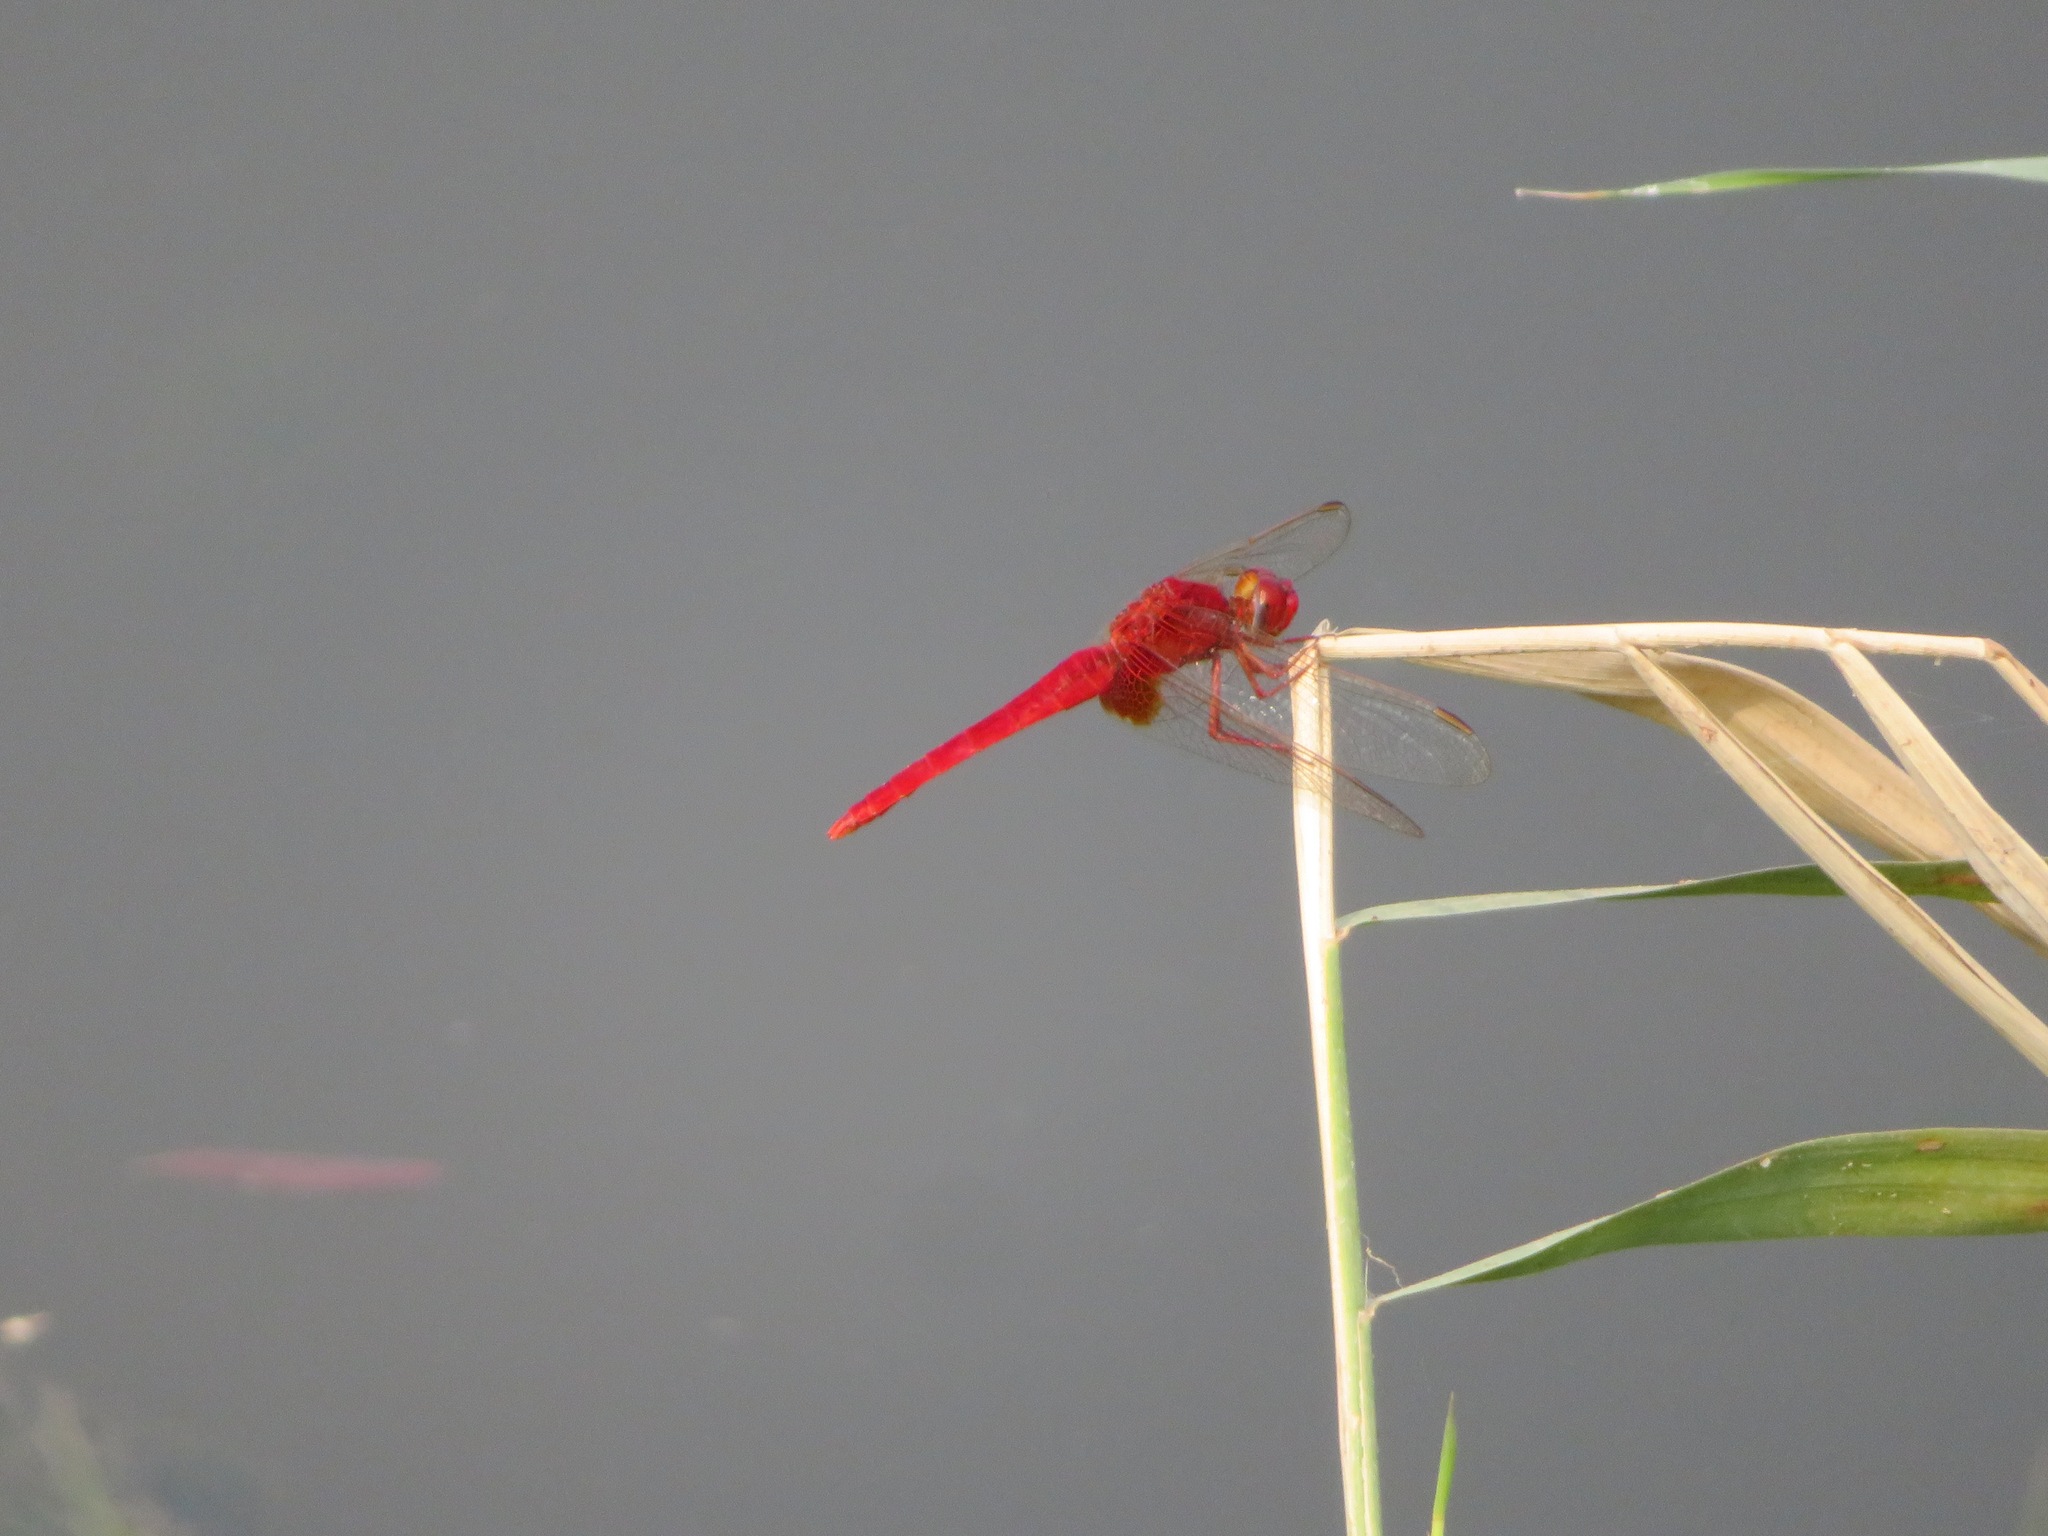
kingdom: Animalia
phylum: Arthropoda
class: Insecta
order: Odonata
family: Libellulidae
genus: Crocothemis
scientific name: Crocothemis servilia
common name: Scarlet skimmer
